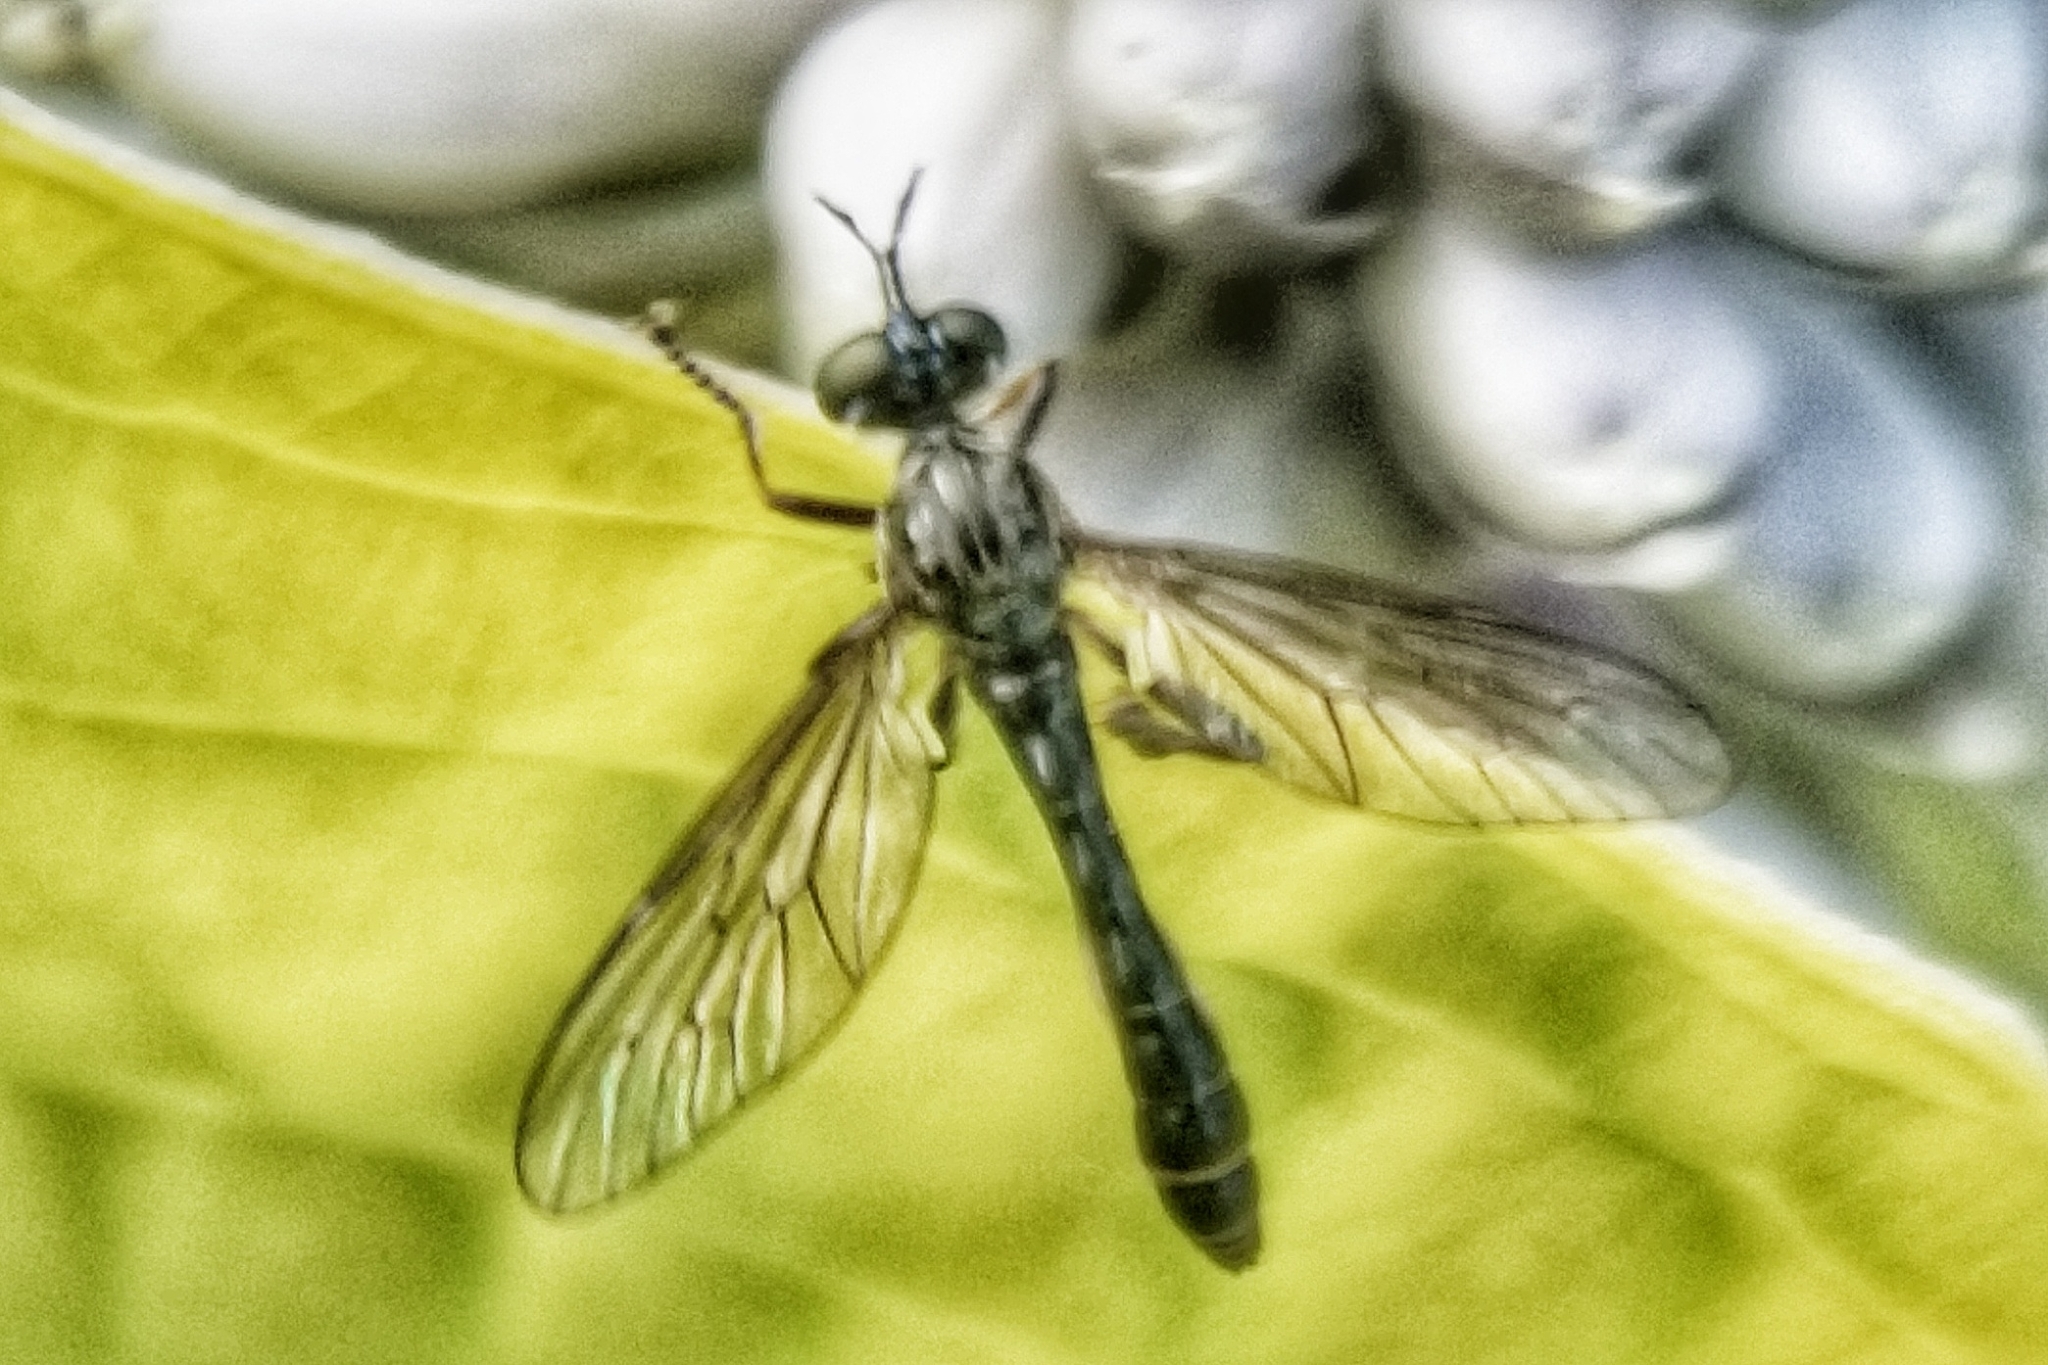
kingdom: Animalia
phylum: Arthropoda
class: Insecta
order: Diptera
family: Asilidae
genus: Dioctria
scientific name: Dioctria hyalipennis
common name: Stripe-legged robberfly
